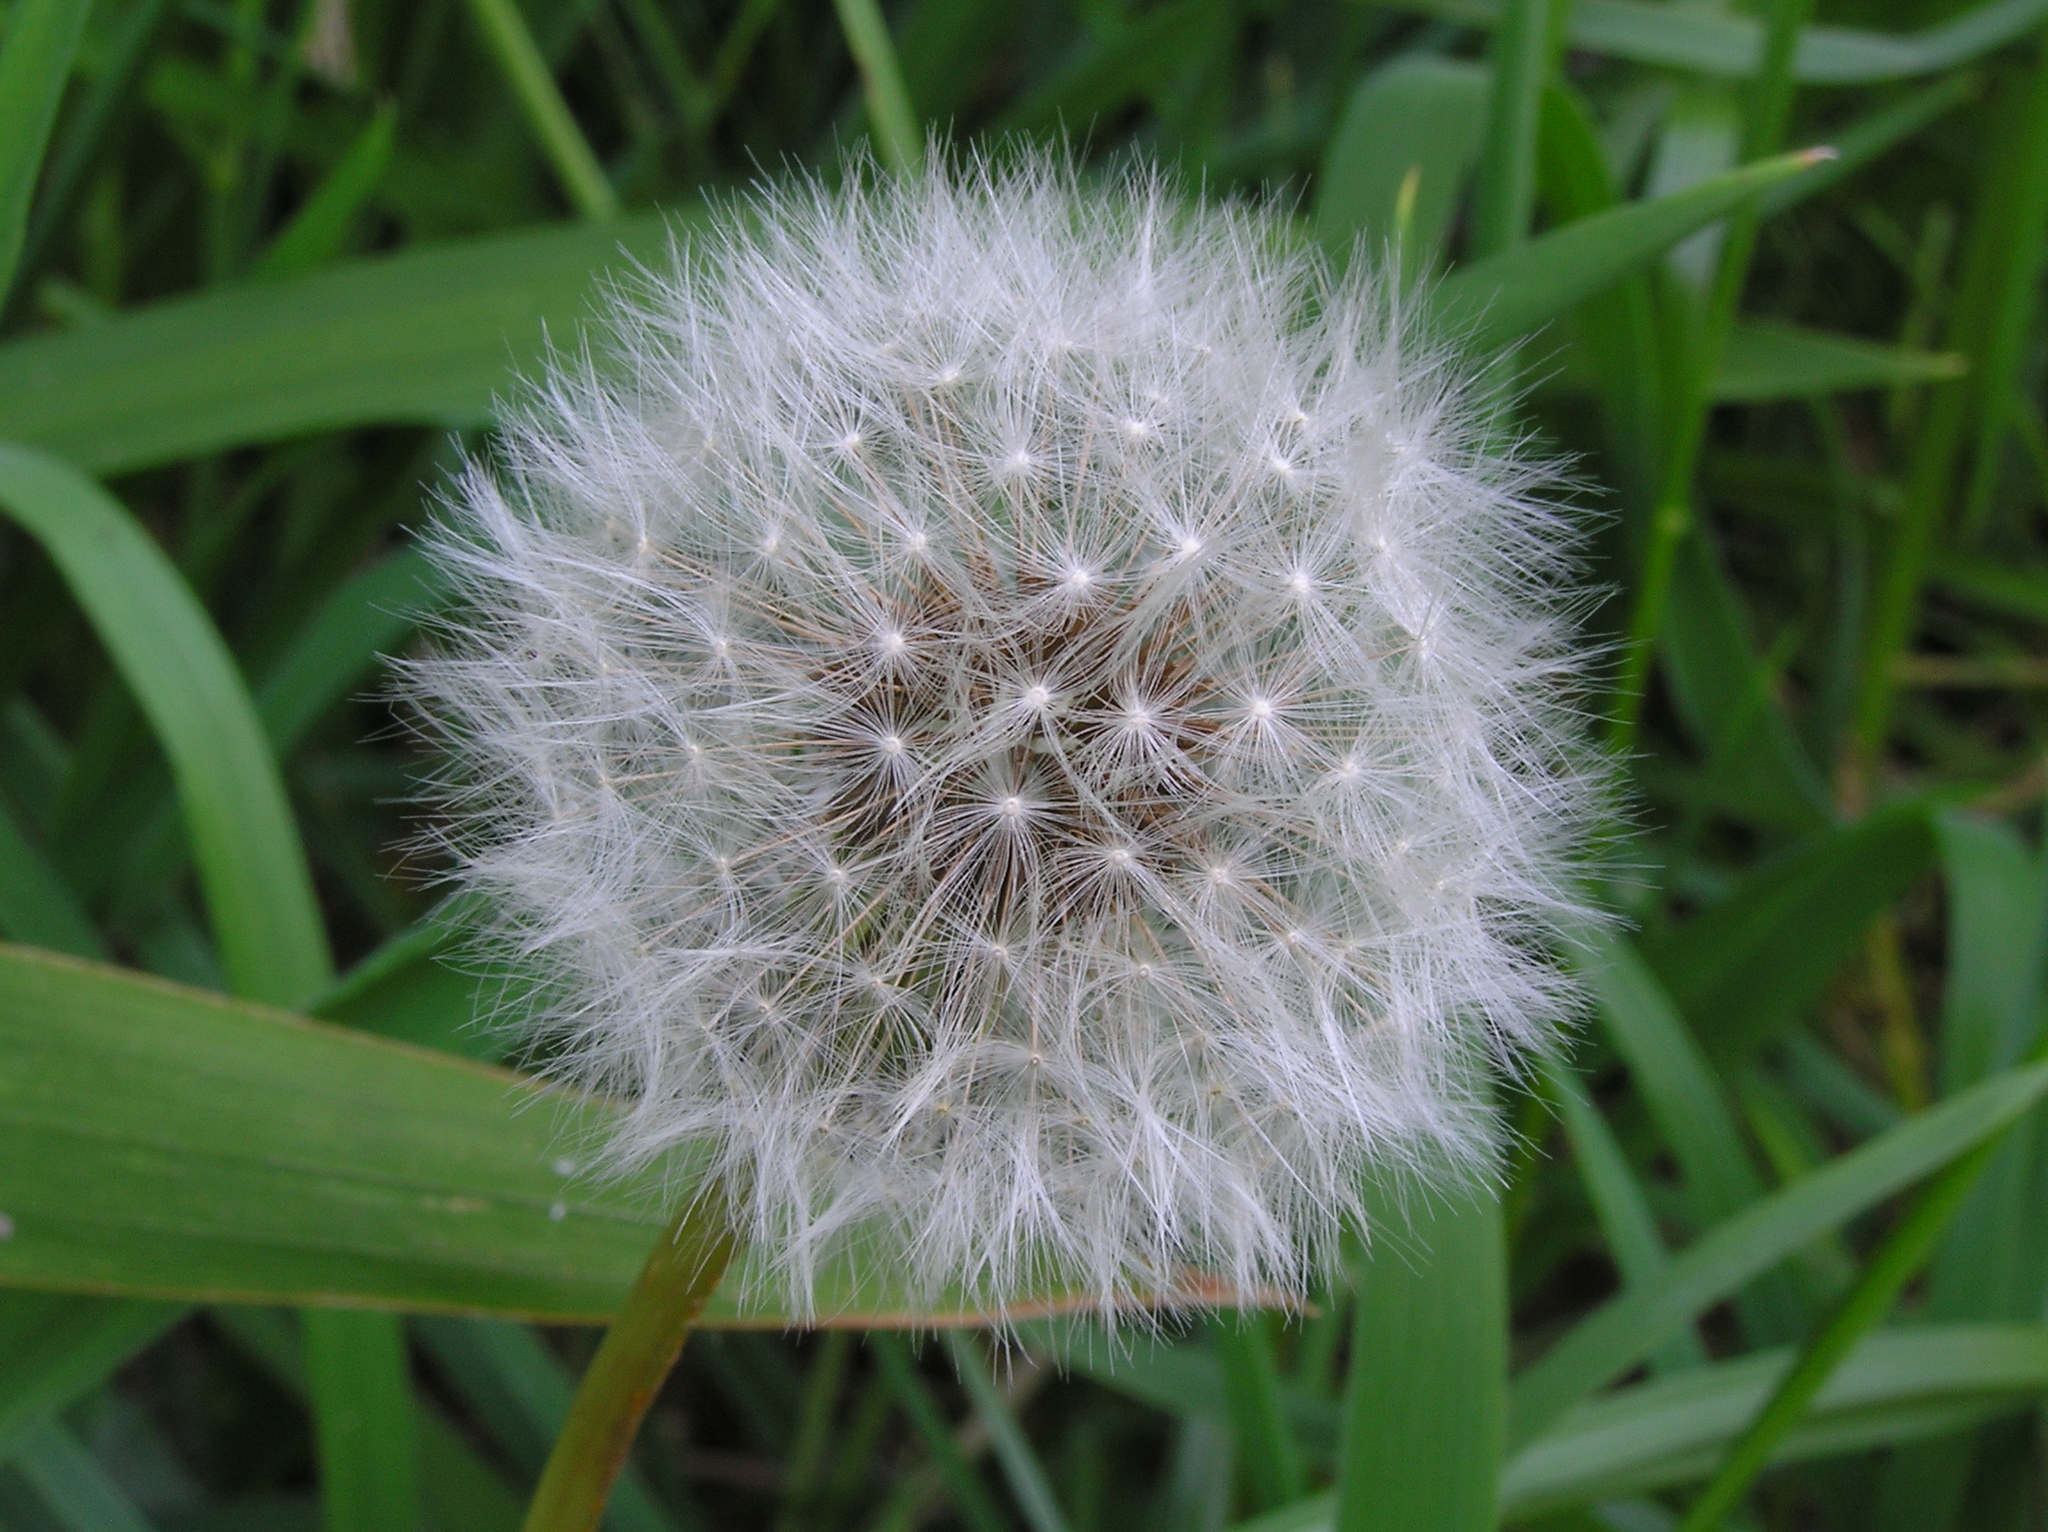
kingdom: Plantae
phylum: Tracheophyta
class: Magnoliopsida
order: Asterales
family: Asteraceae
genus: Taraxacum
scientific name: Taraxacum officinale
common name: Common dandelion
